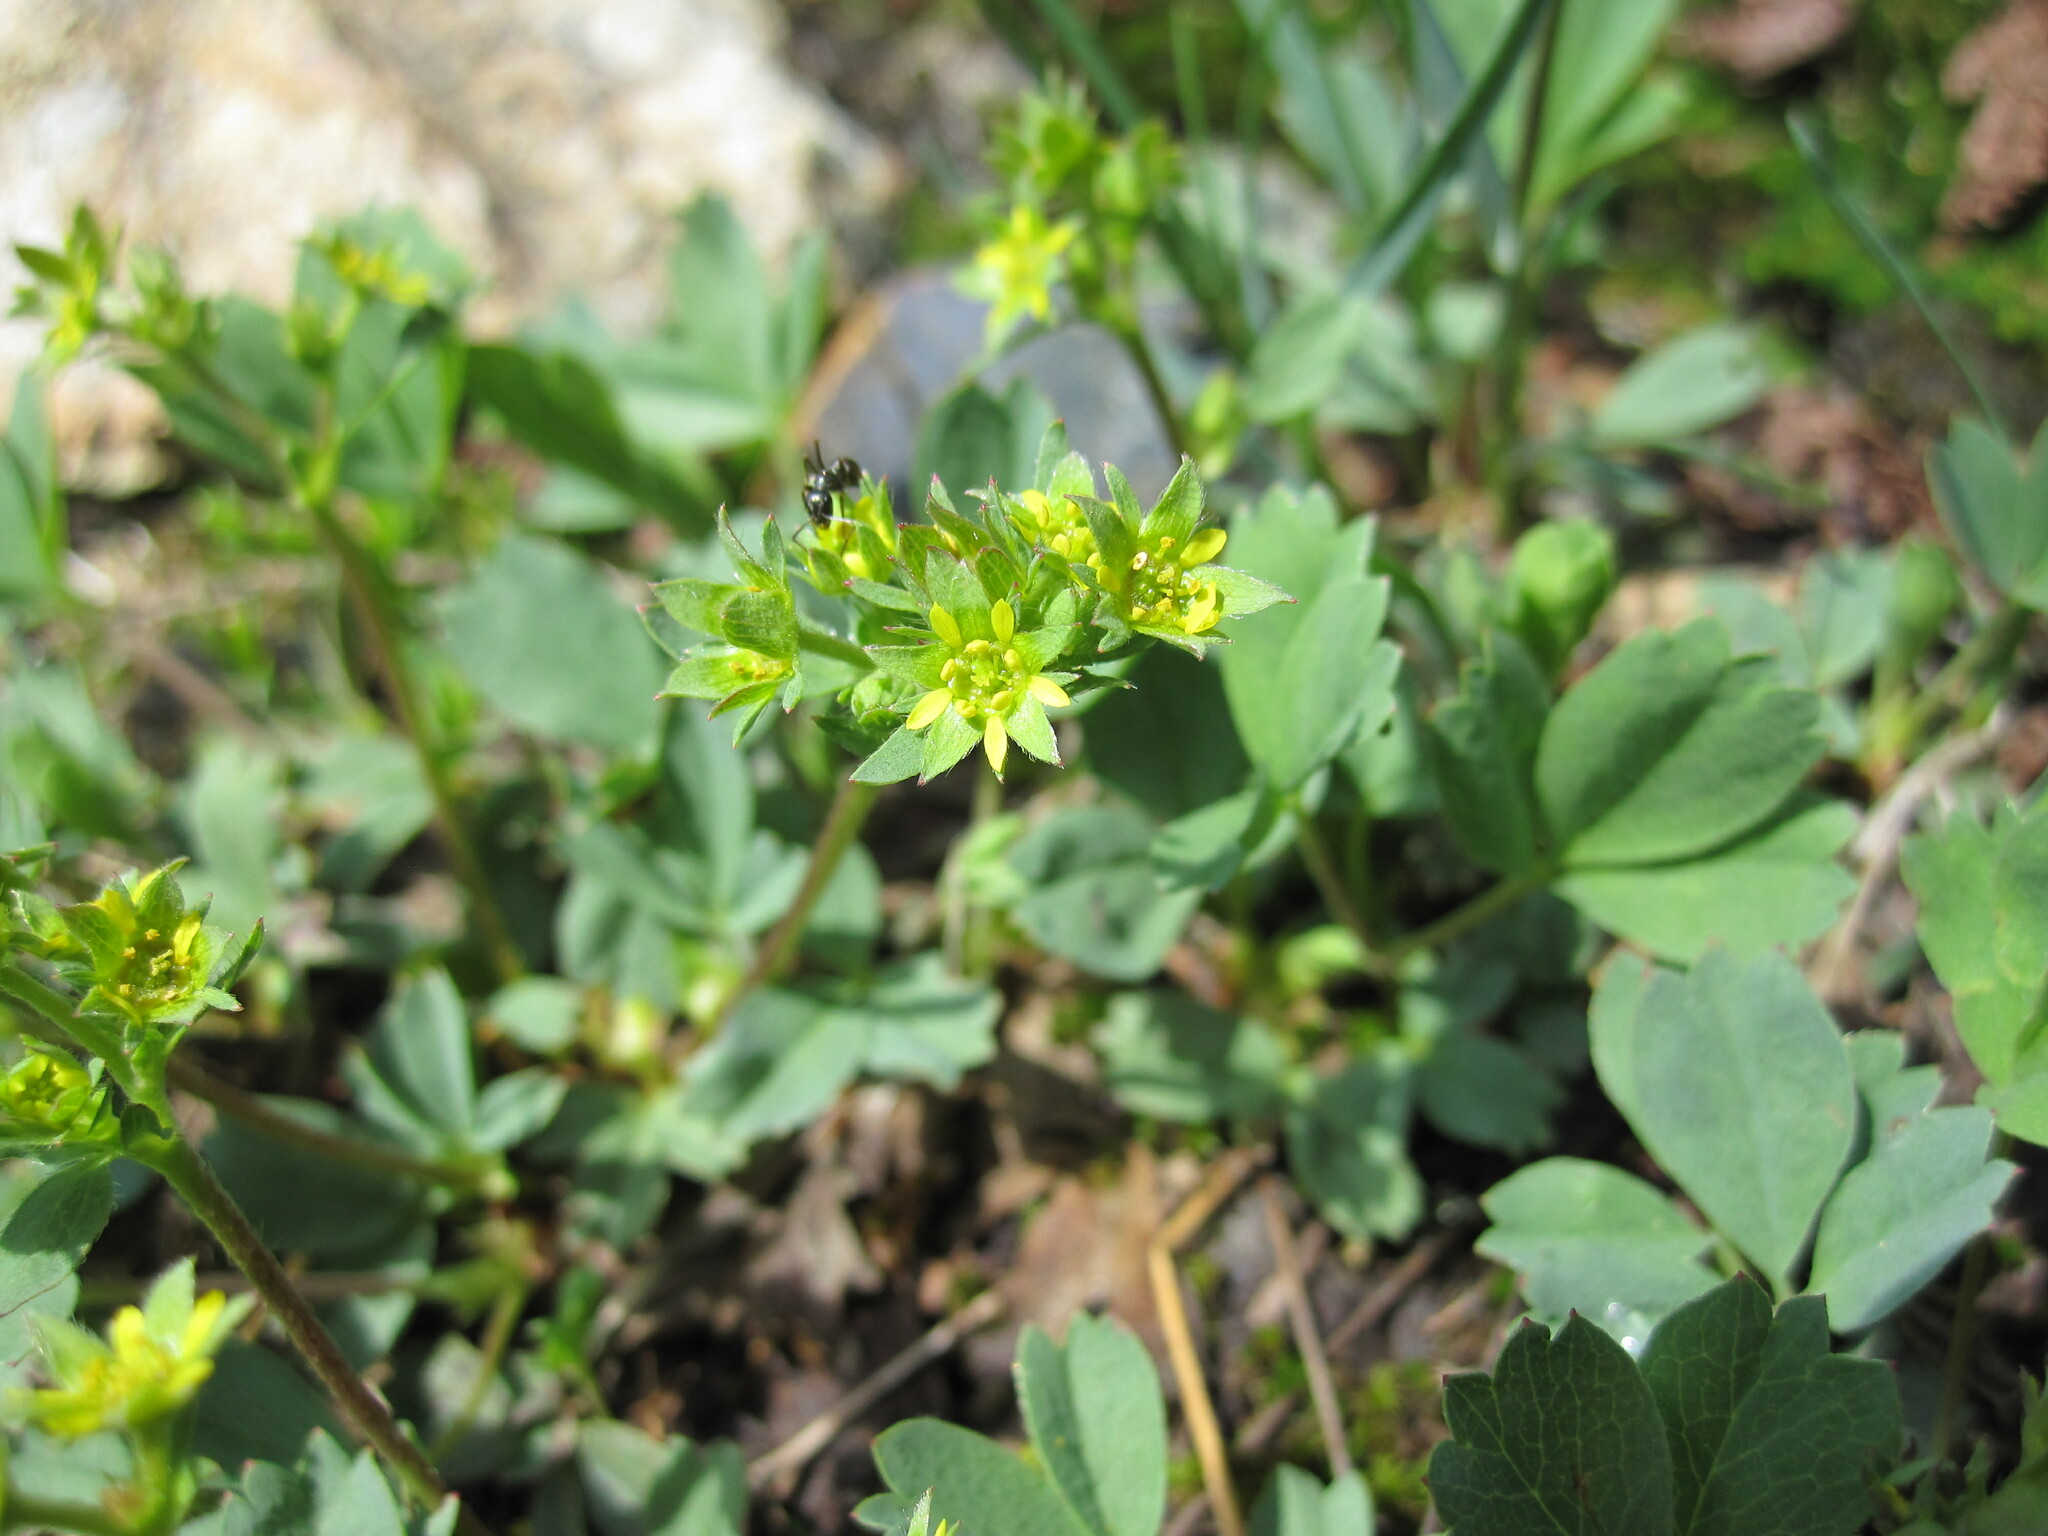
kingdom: Plantae
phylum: Tracheophyta
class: Magnoliopsida
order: Rosales
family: Rosaceae
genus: Sibbaldia
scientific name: Sibbaldia procumbens
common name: Creeping sibbaldia
